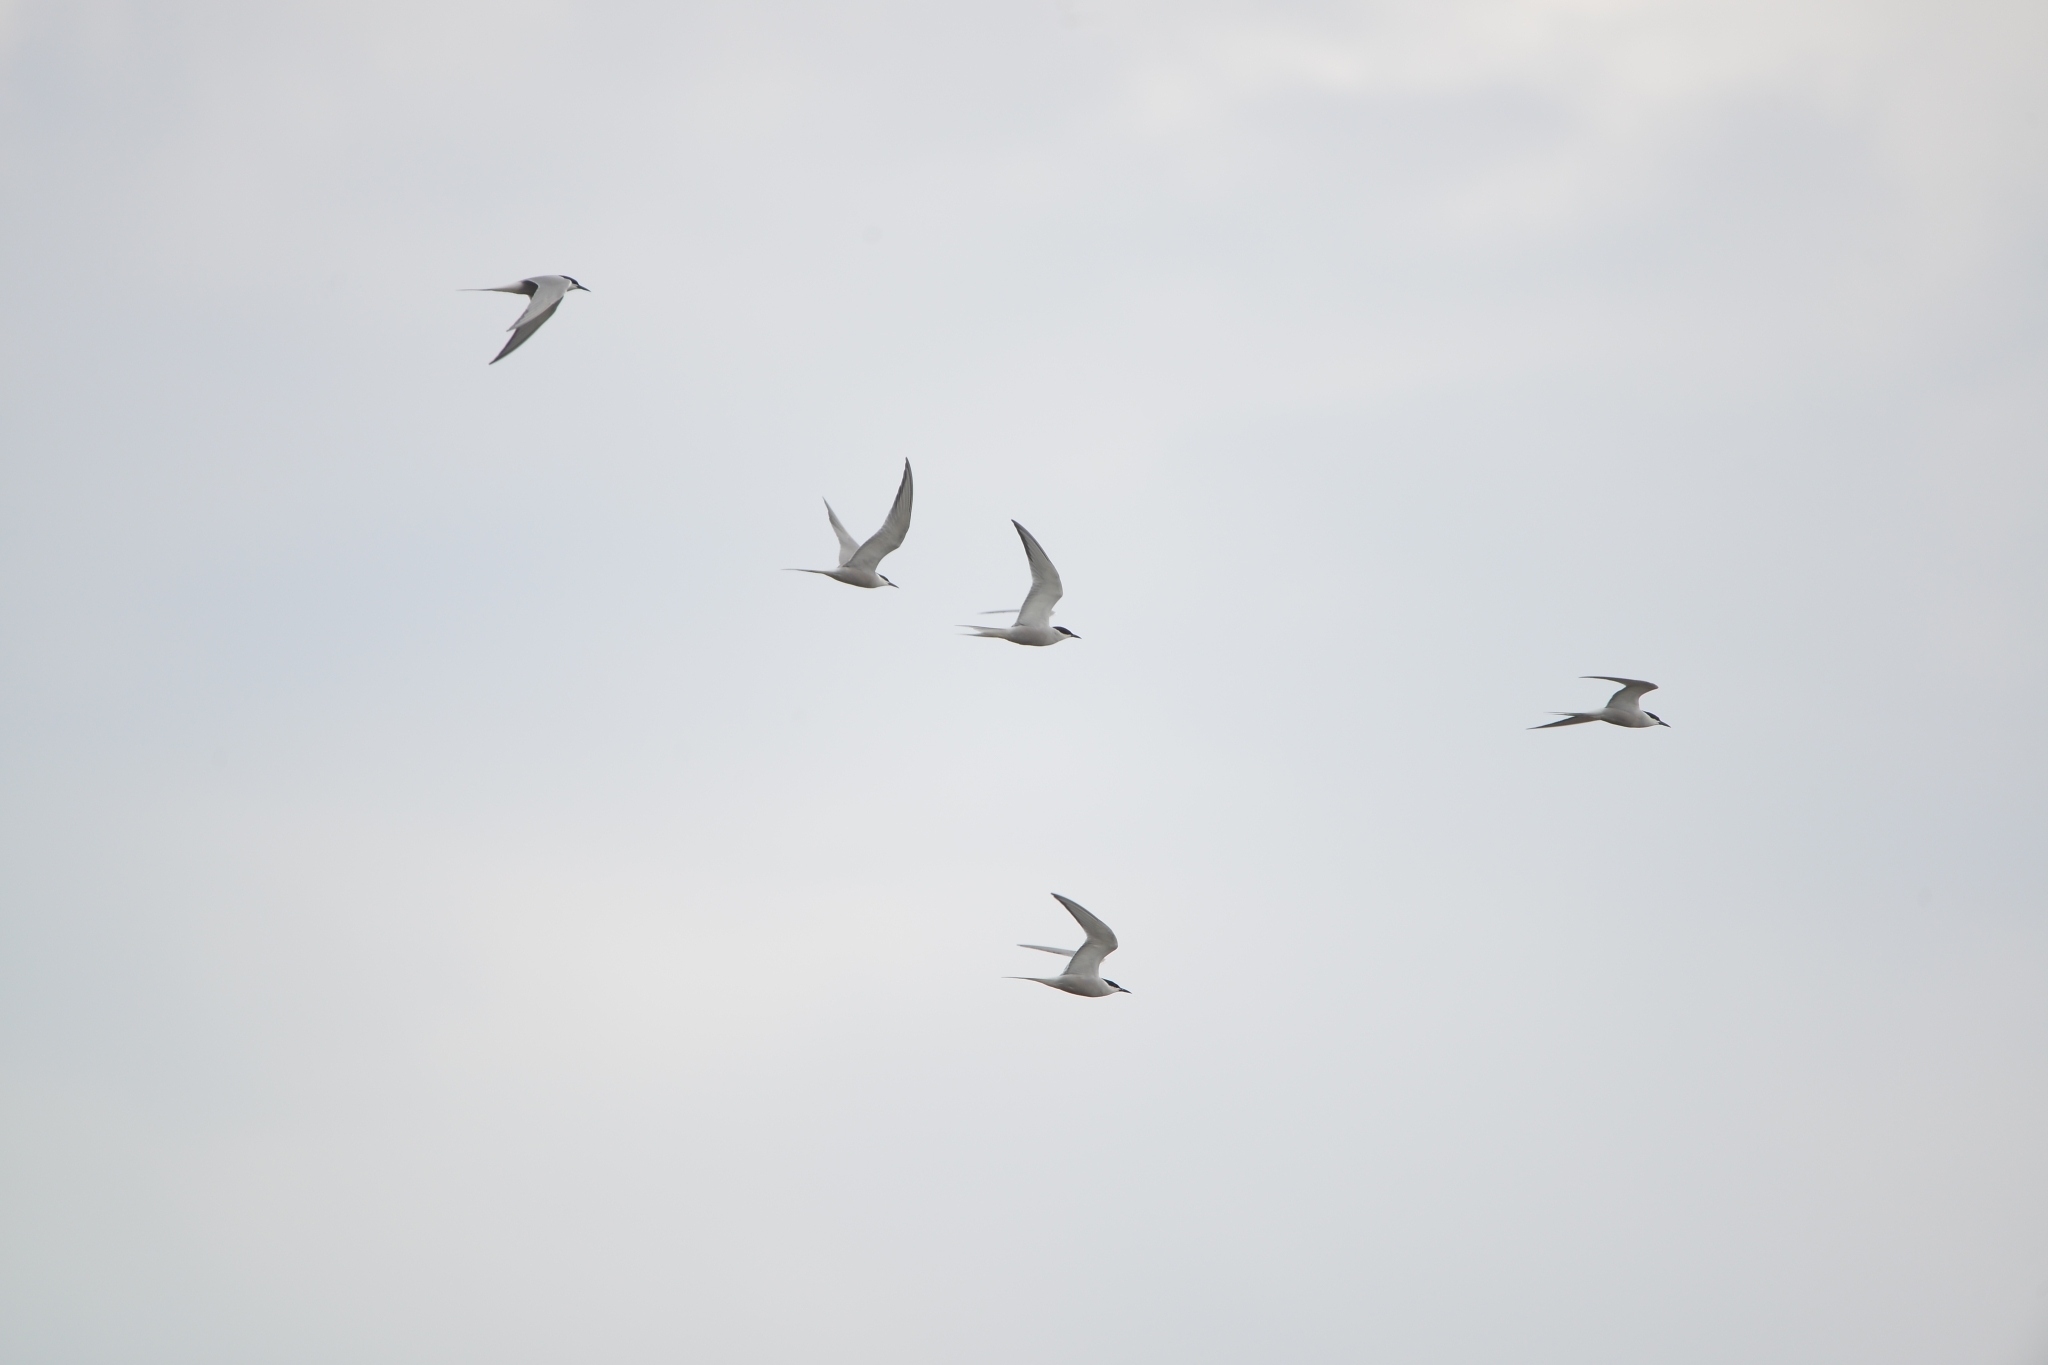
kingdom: Animalia
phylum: Chordata
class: Aves
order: Charadriiformes
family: Laridae
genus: Sterna
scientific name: Sterna hirundo
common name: Common tern
